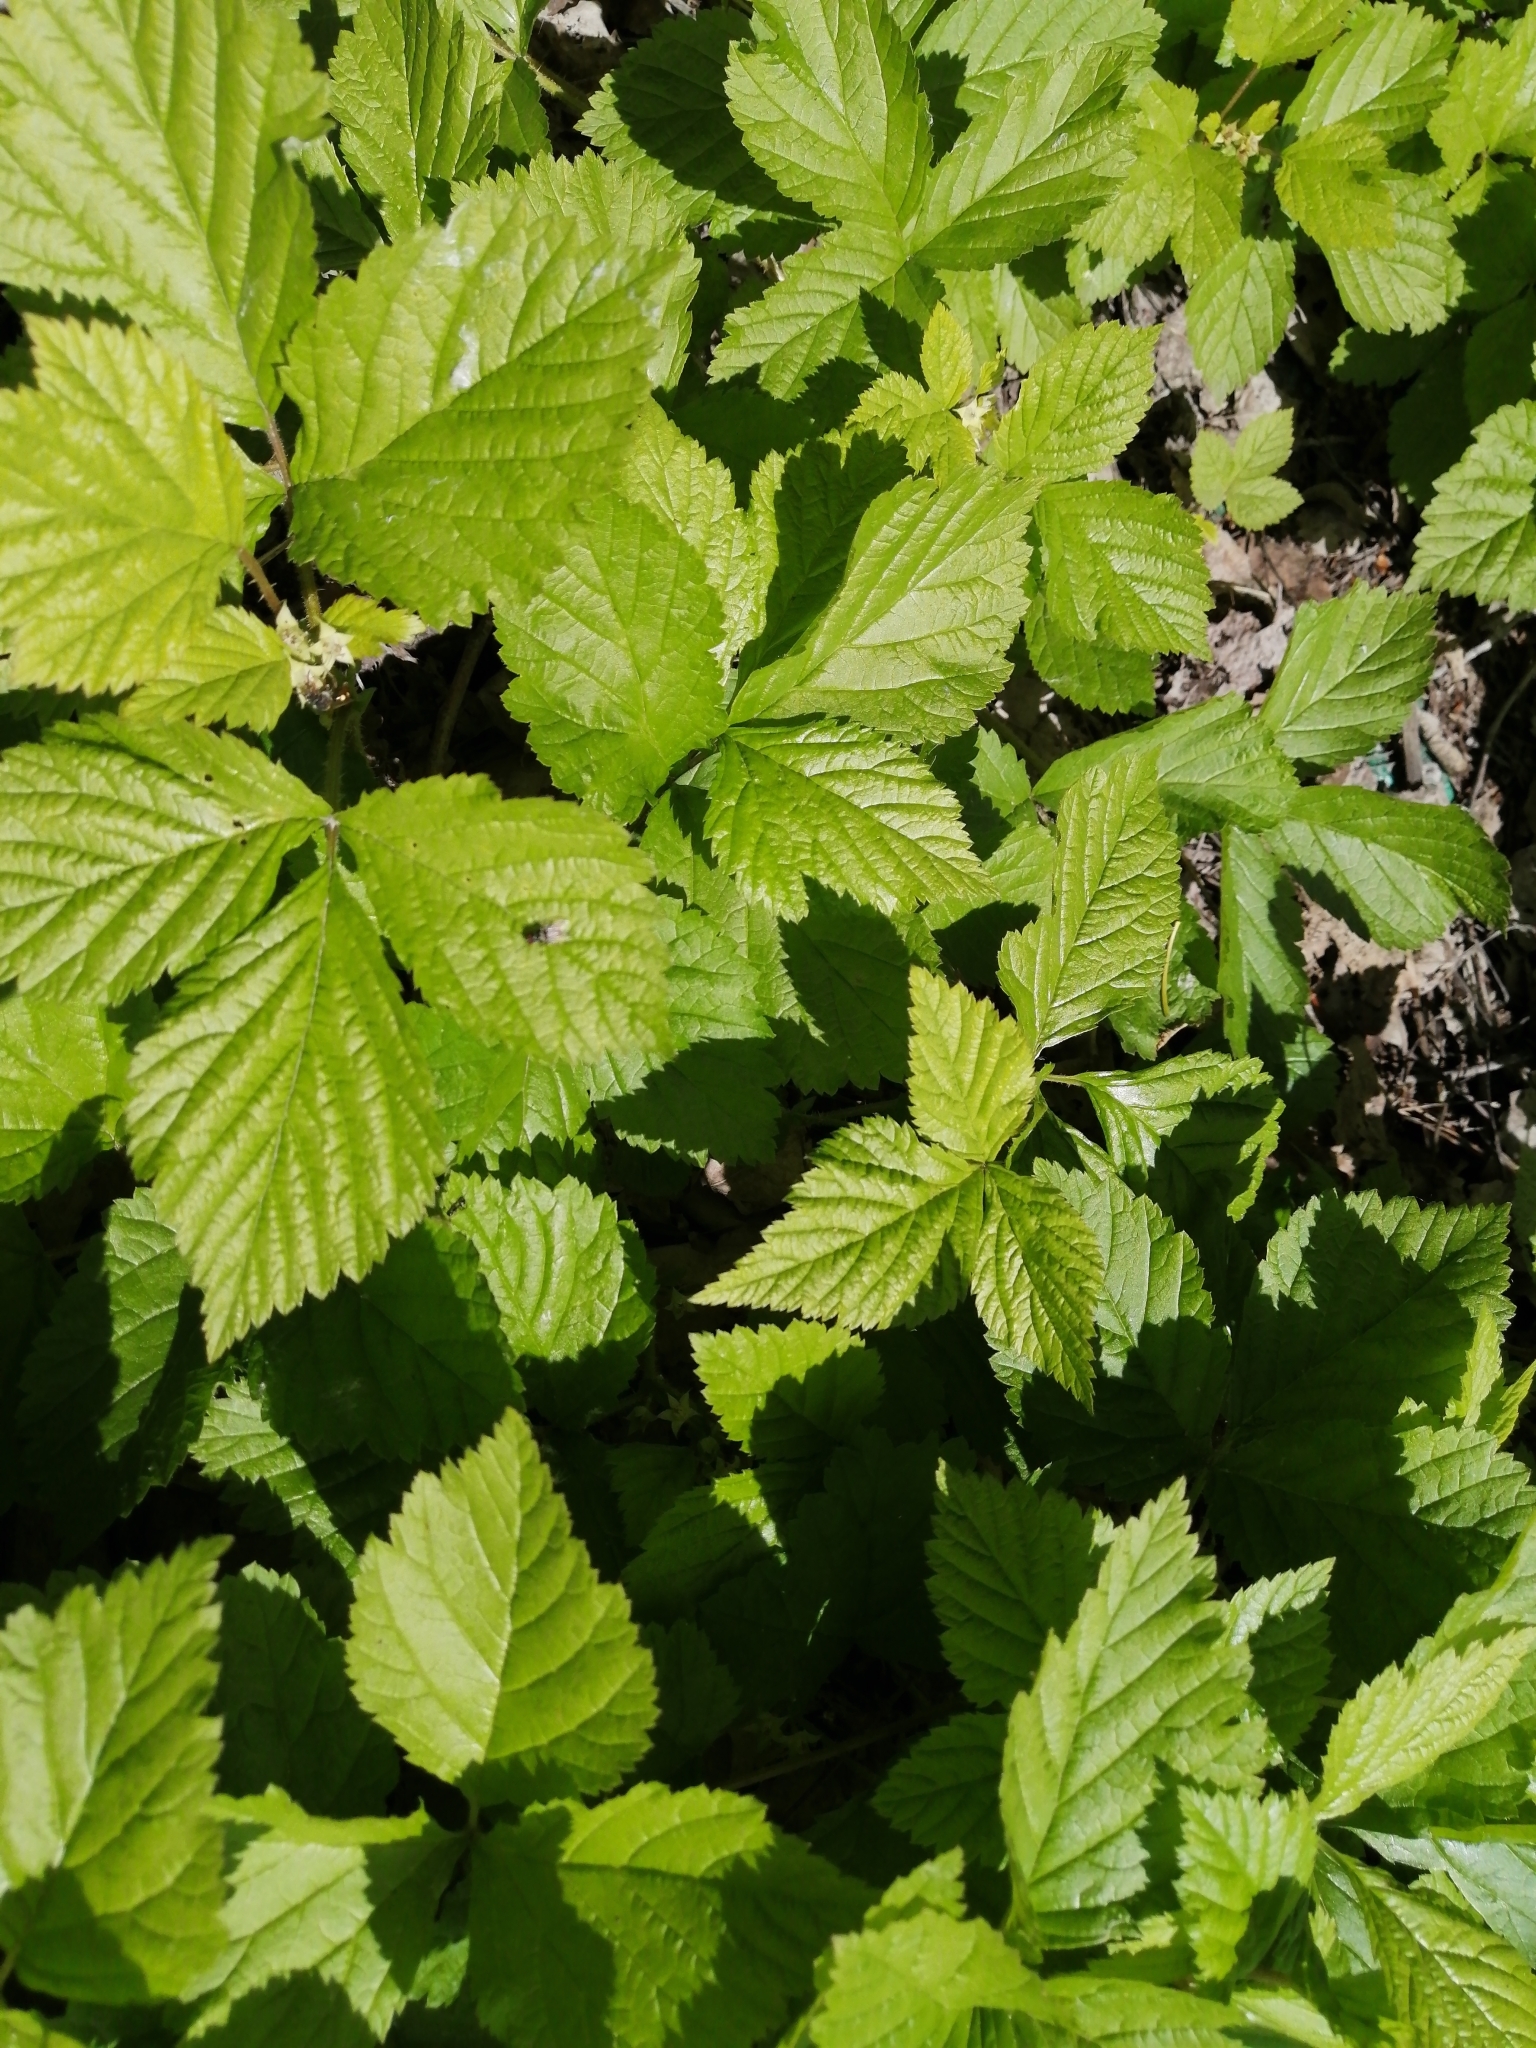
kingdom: Plantae
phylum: Tracheophyta
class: Magnoliopsida
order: Rosales
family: Rosaceae
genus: Rubus
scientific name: Rubus saxatilis
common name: Stone bramble
